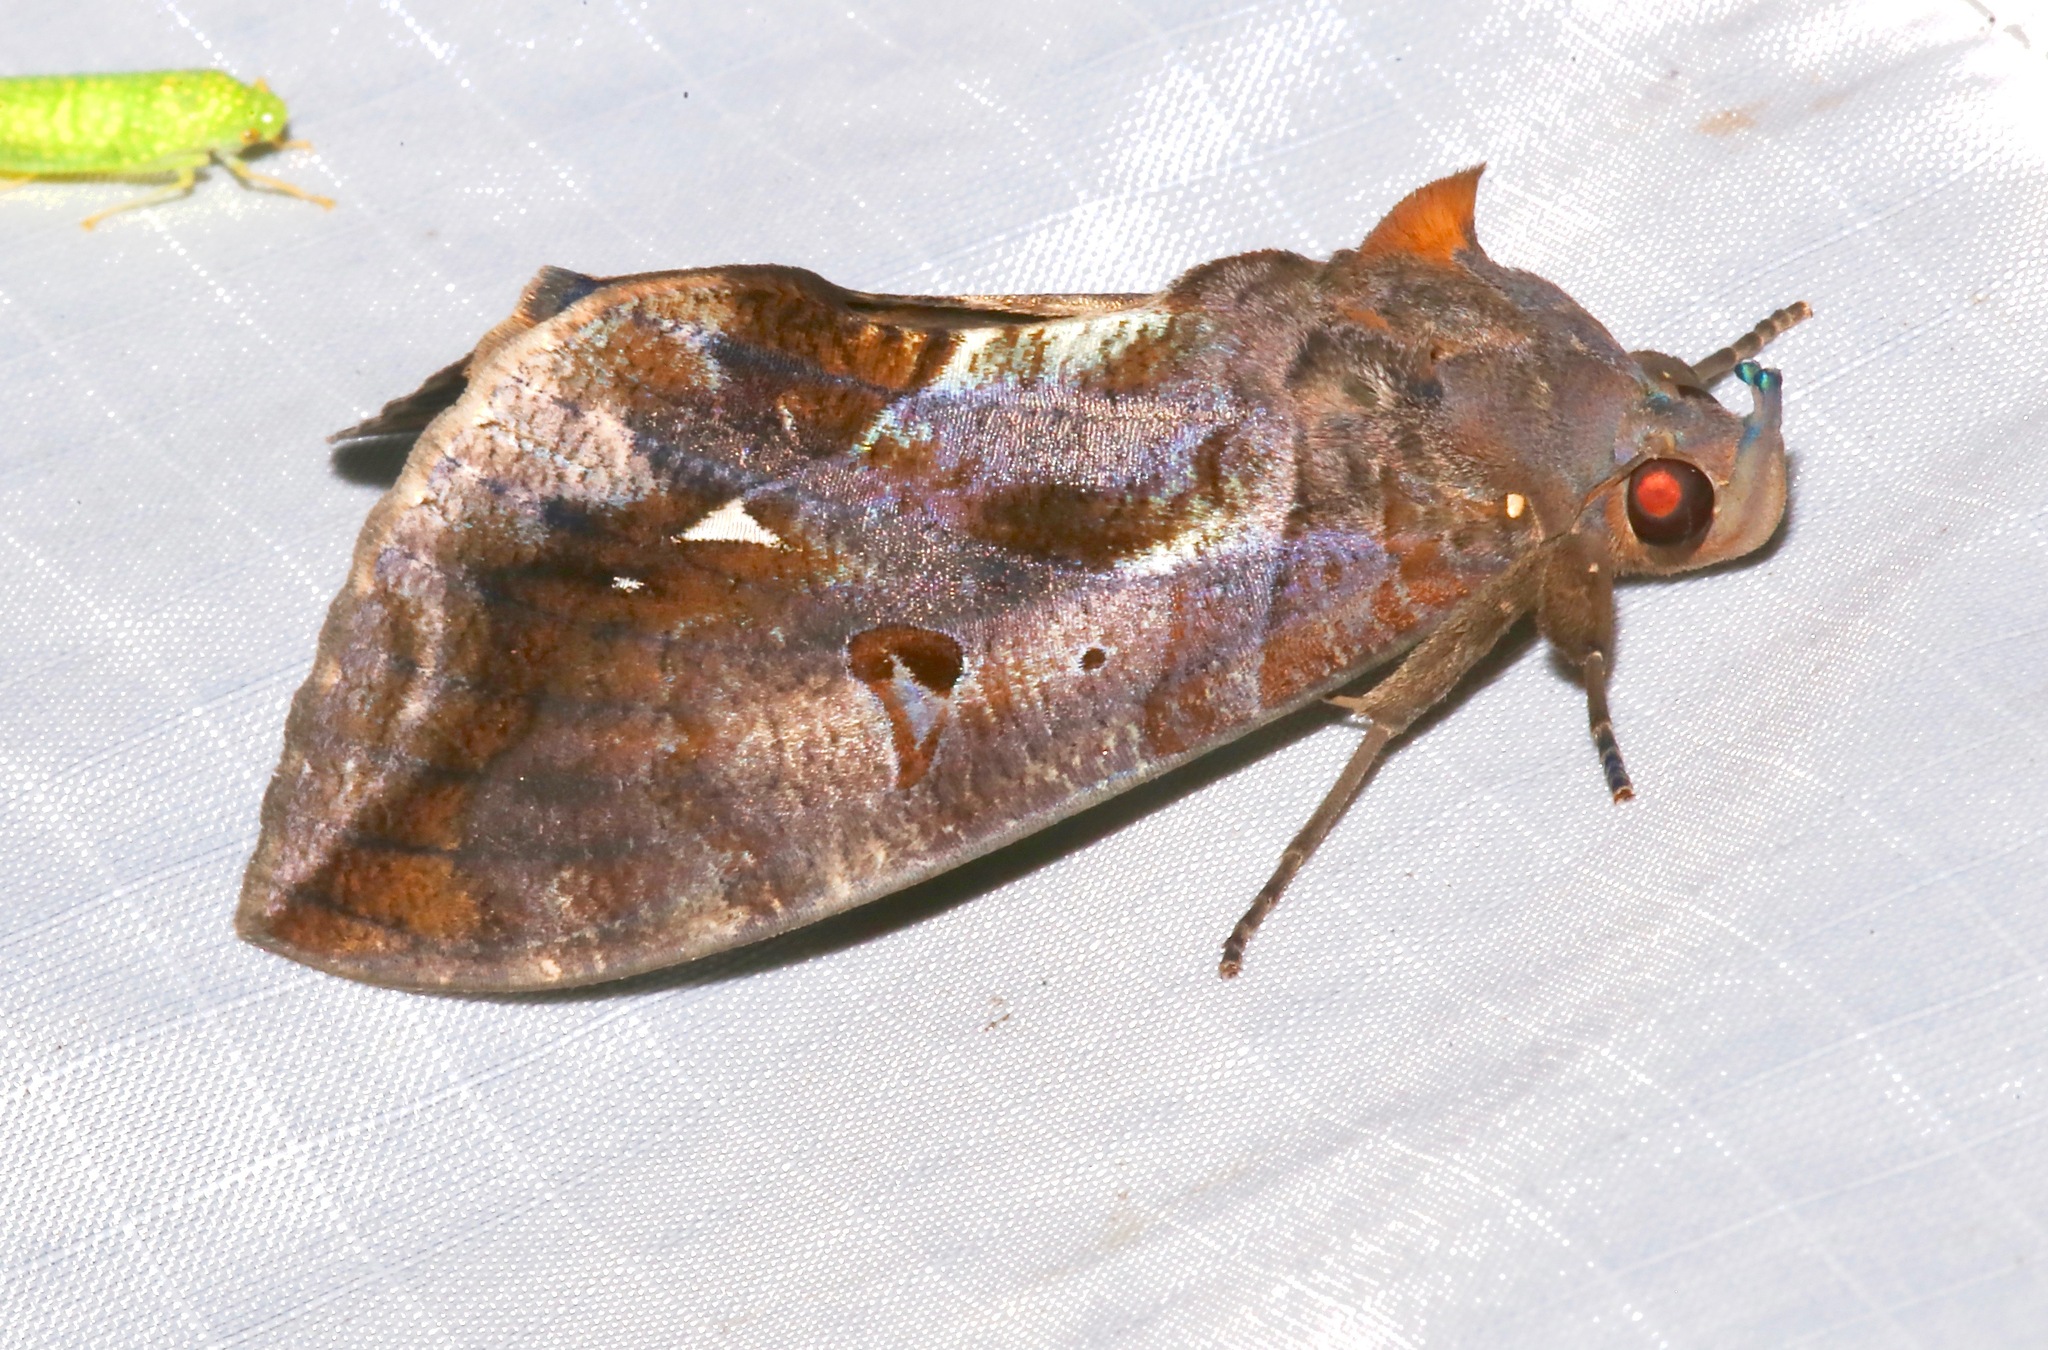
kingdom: Animalia
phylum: Arthropoda
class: Insecta
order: Lepidoptera
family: Erebidae
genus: Eudocima
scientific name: Eudocima procus
